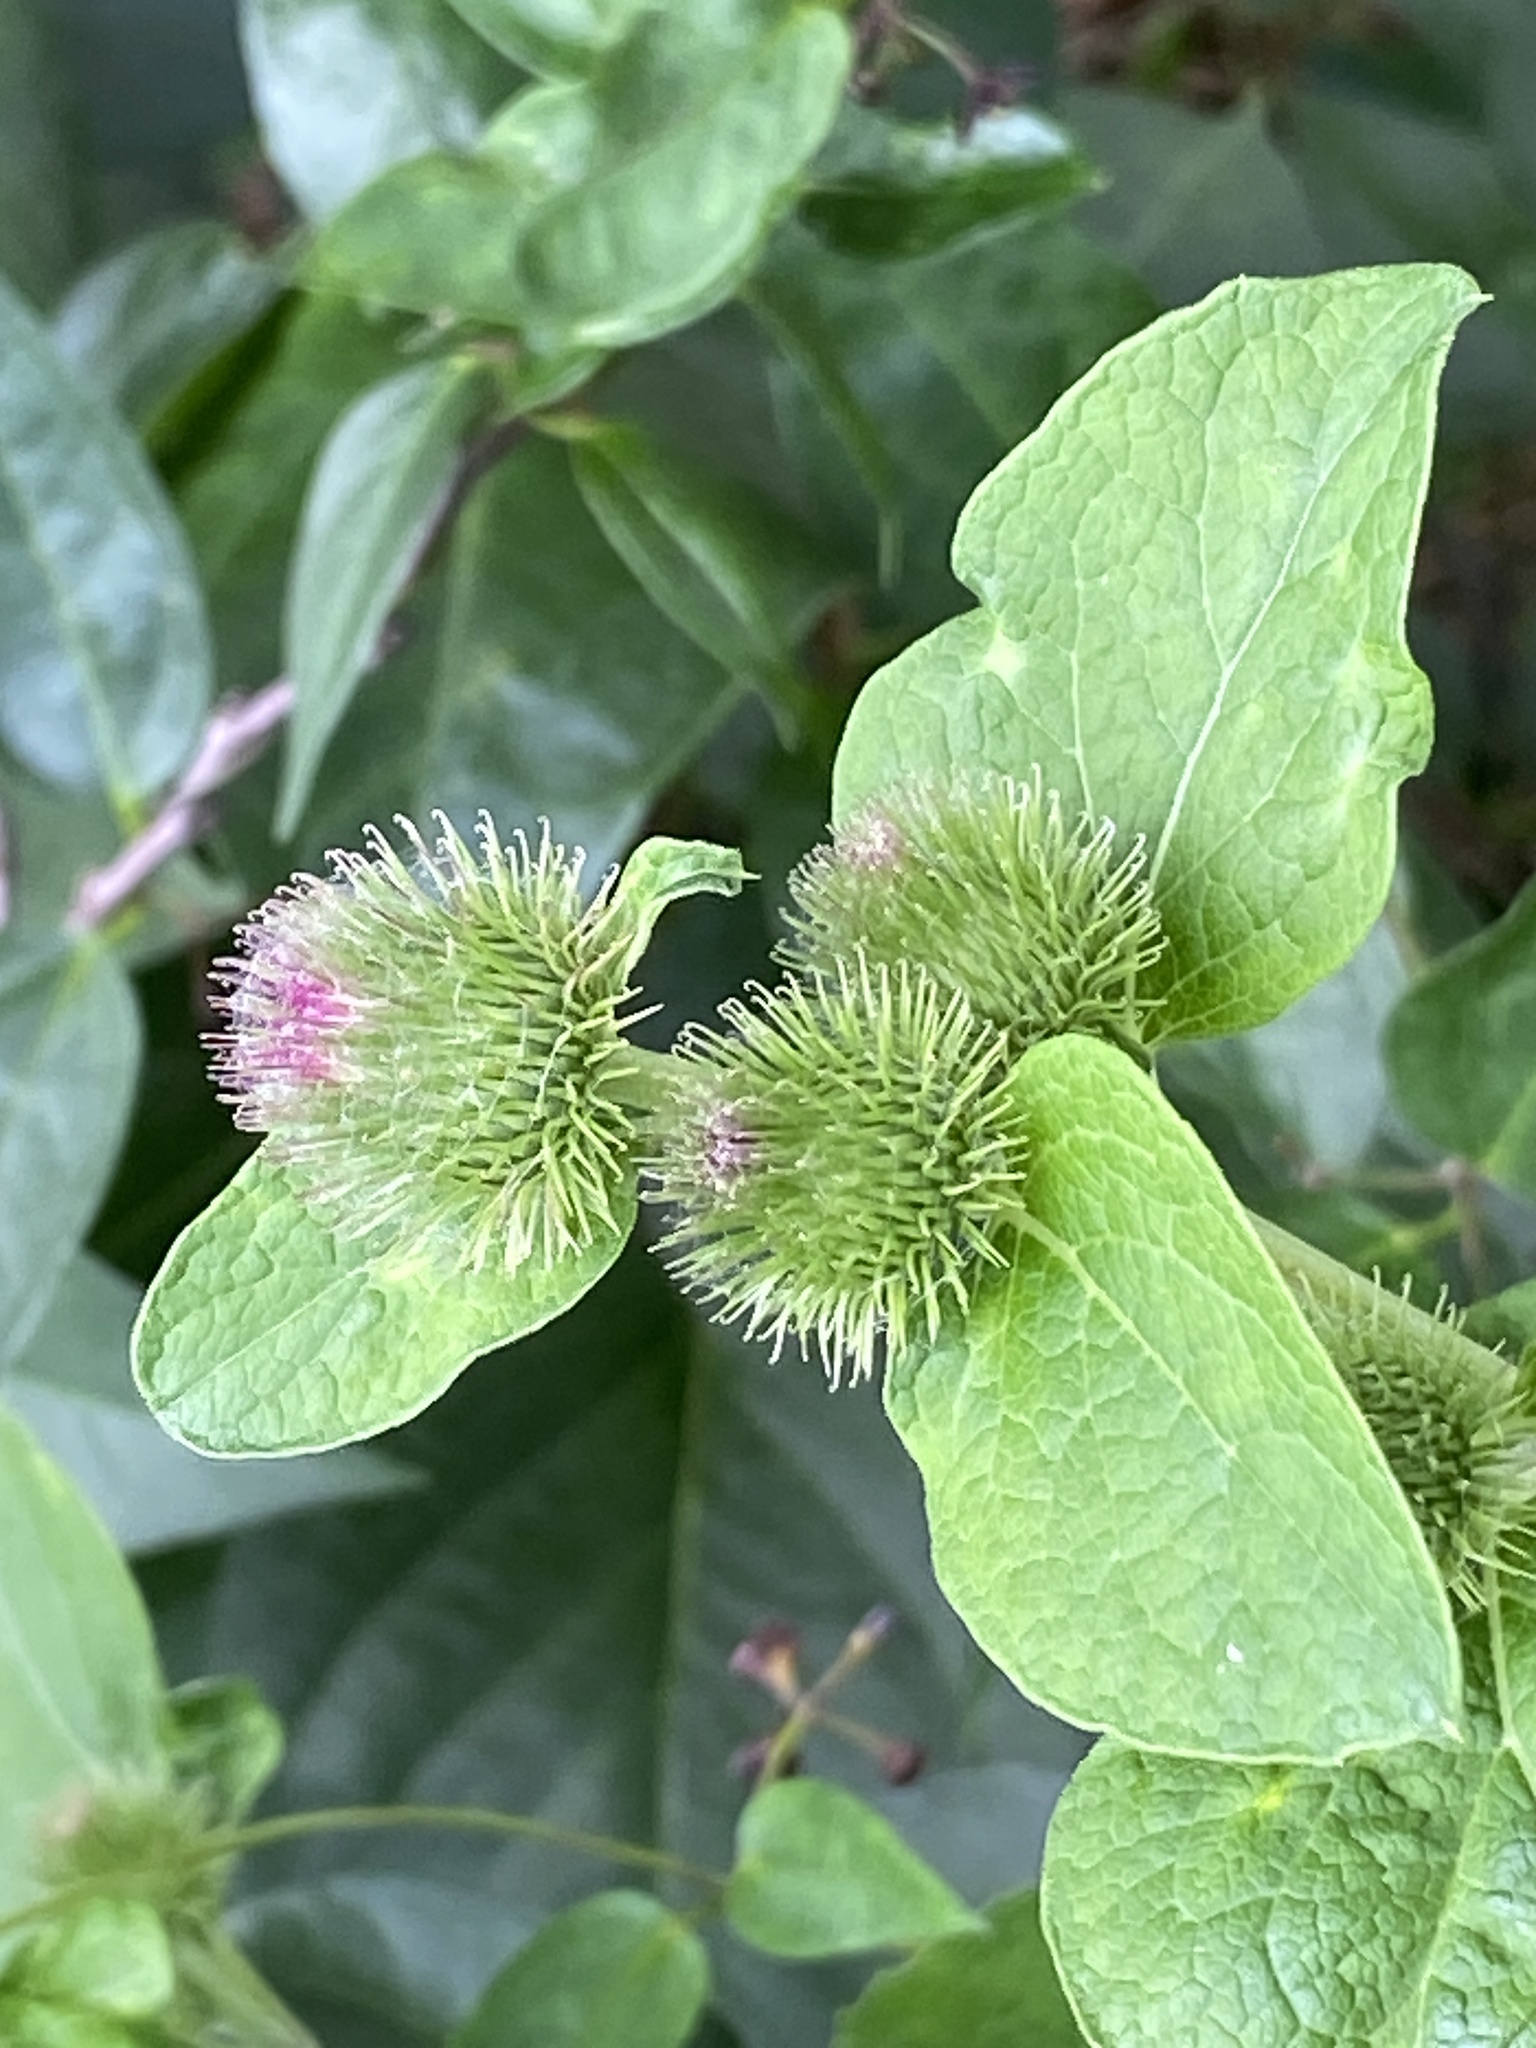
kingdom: Plantae
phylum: Tracheophyta
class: Magnoliopsida
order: Asterales
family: Asteraceae
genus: Arctium
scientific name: Arctium minus
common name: Lesser burdock
